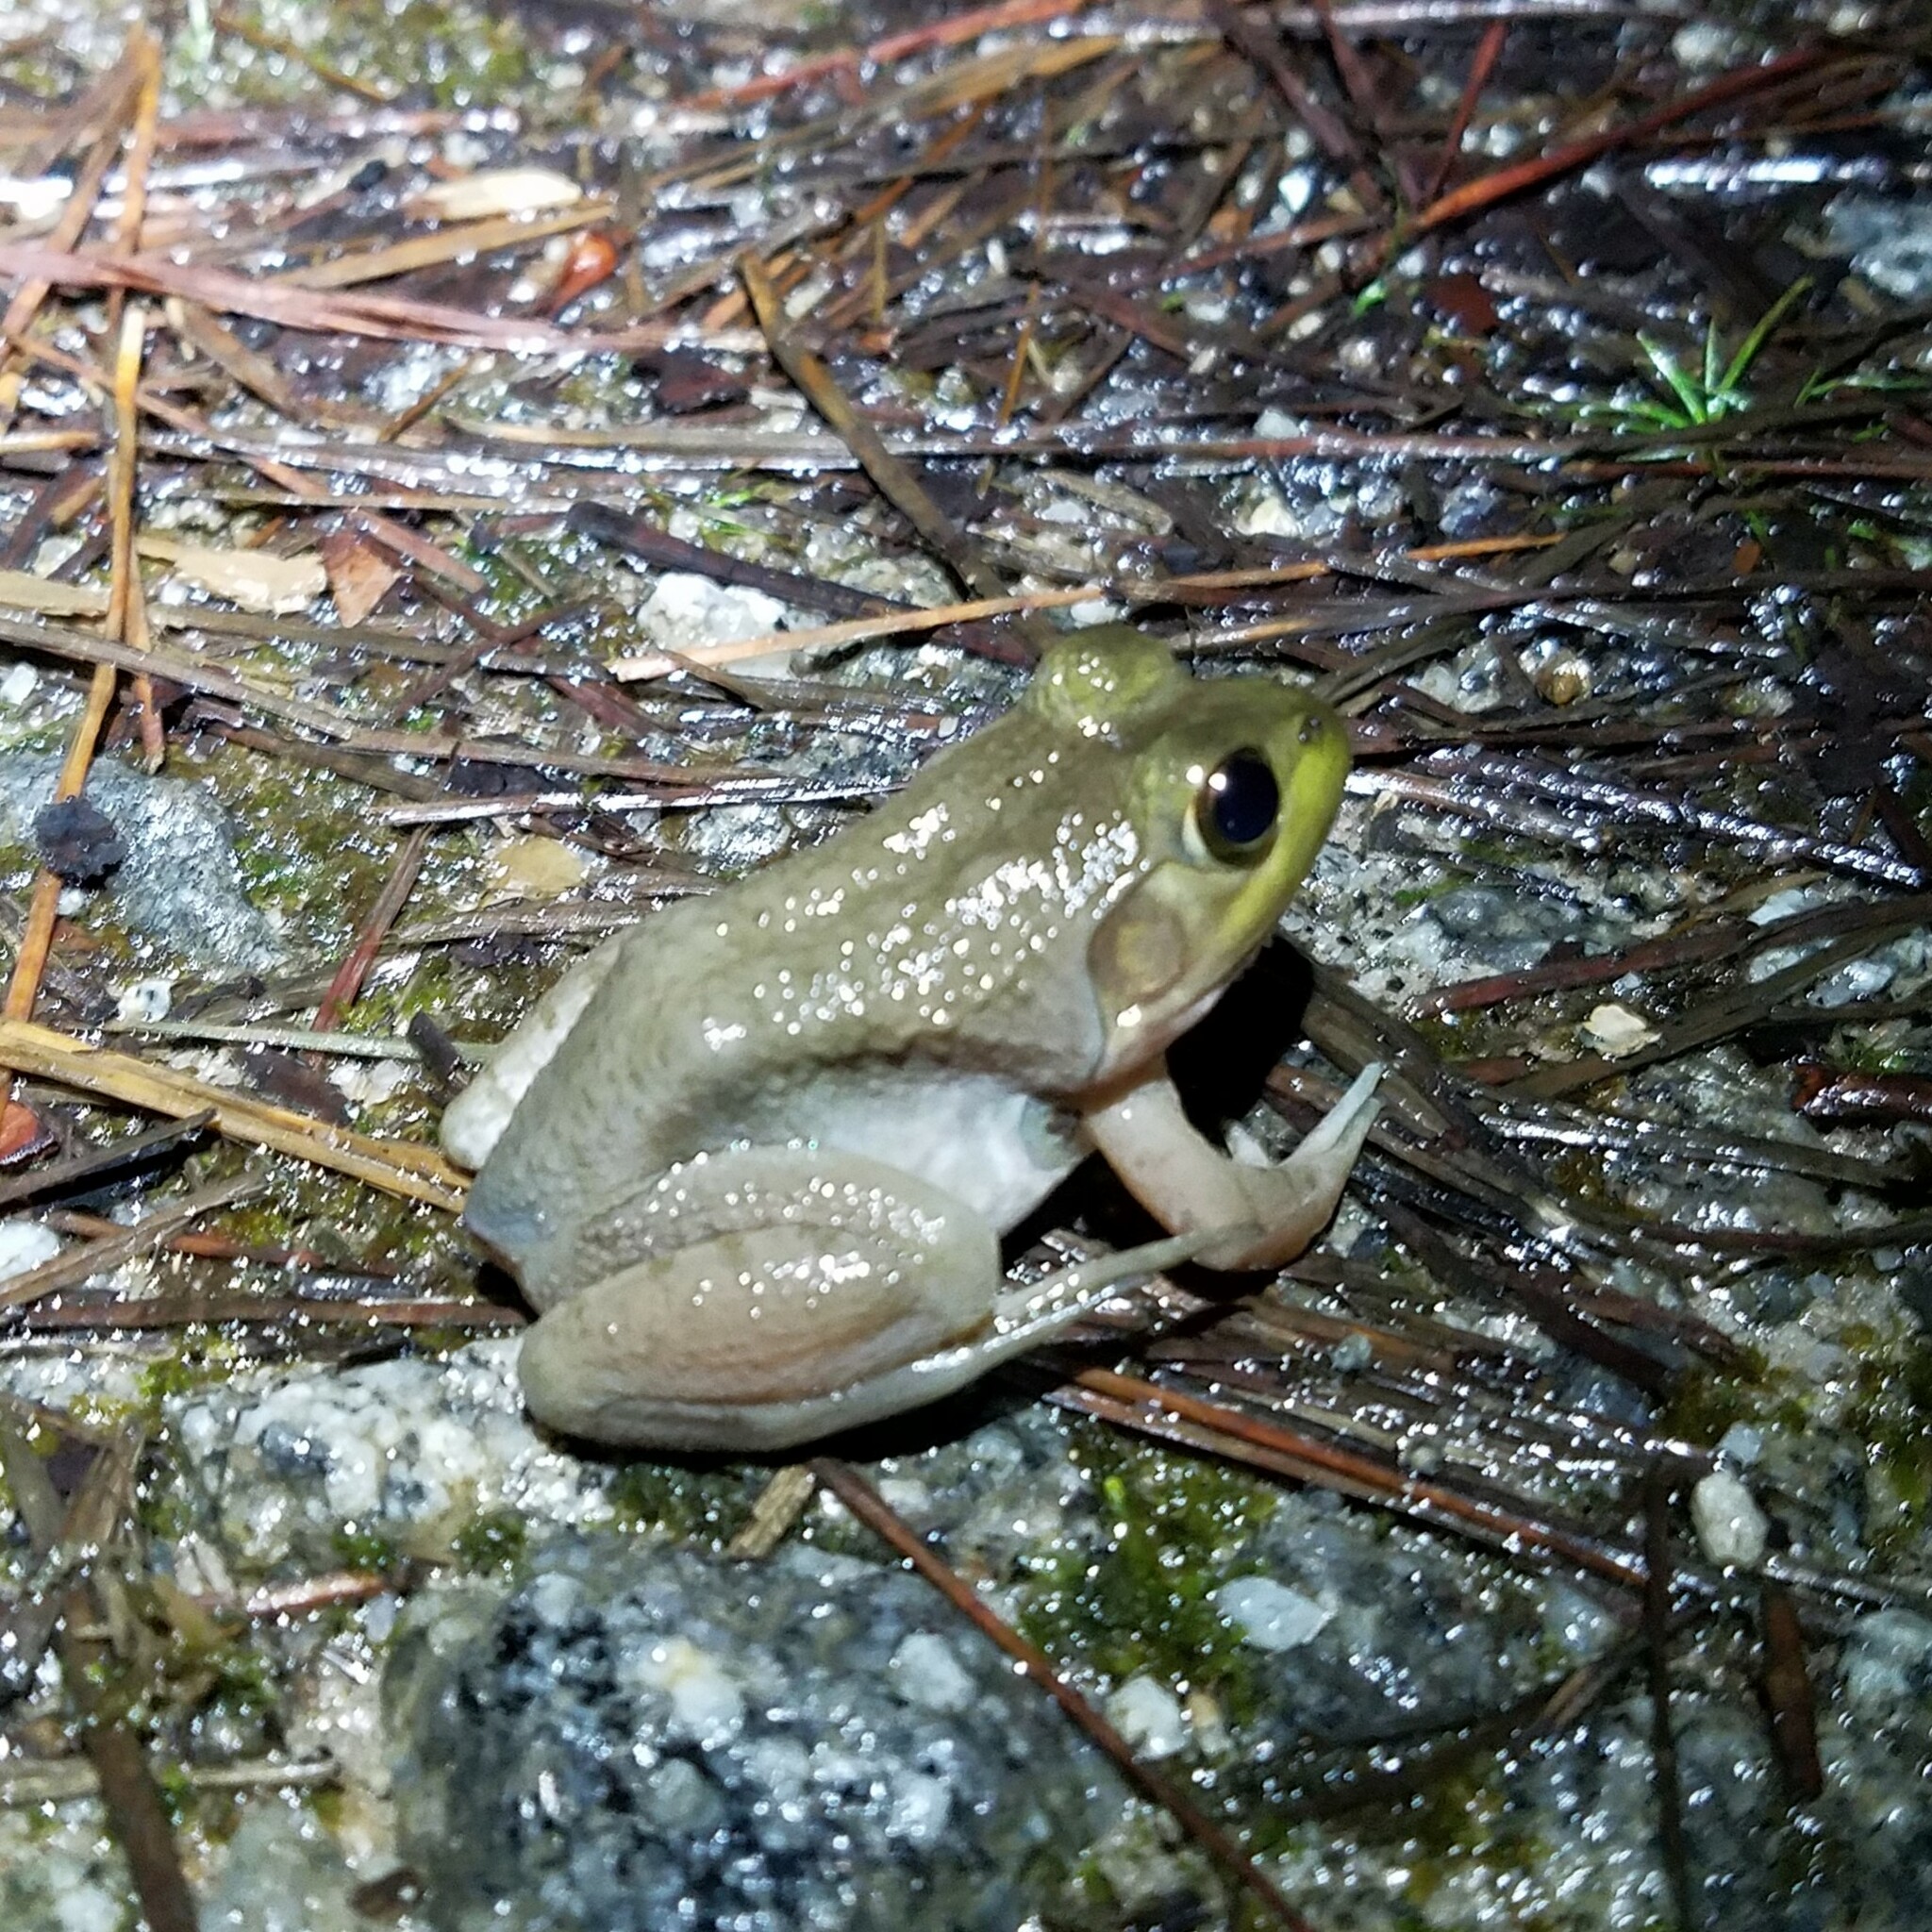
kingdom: Animalia
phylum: Chordata
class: Amphibia
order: Anura
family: Ranidae
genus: Lithobates
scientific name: Lithobates catesbeianus
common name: American bullfrog
